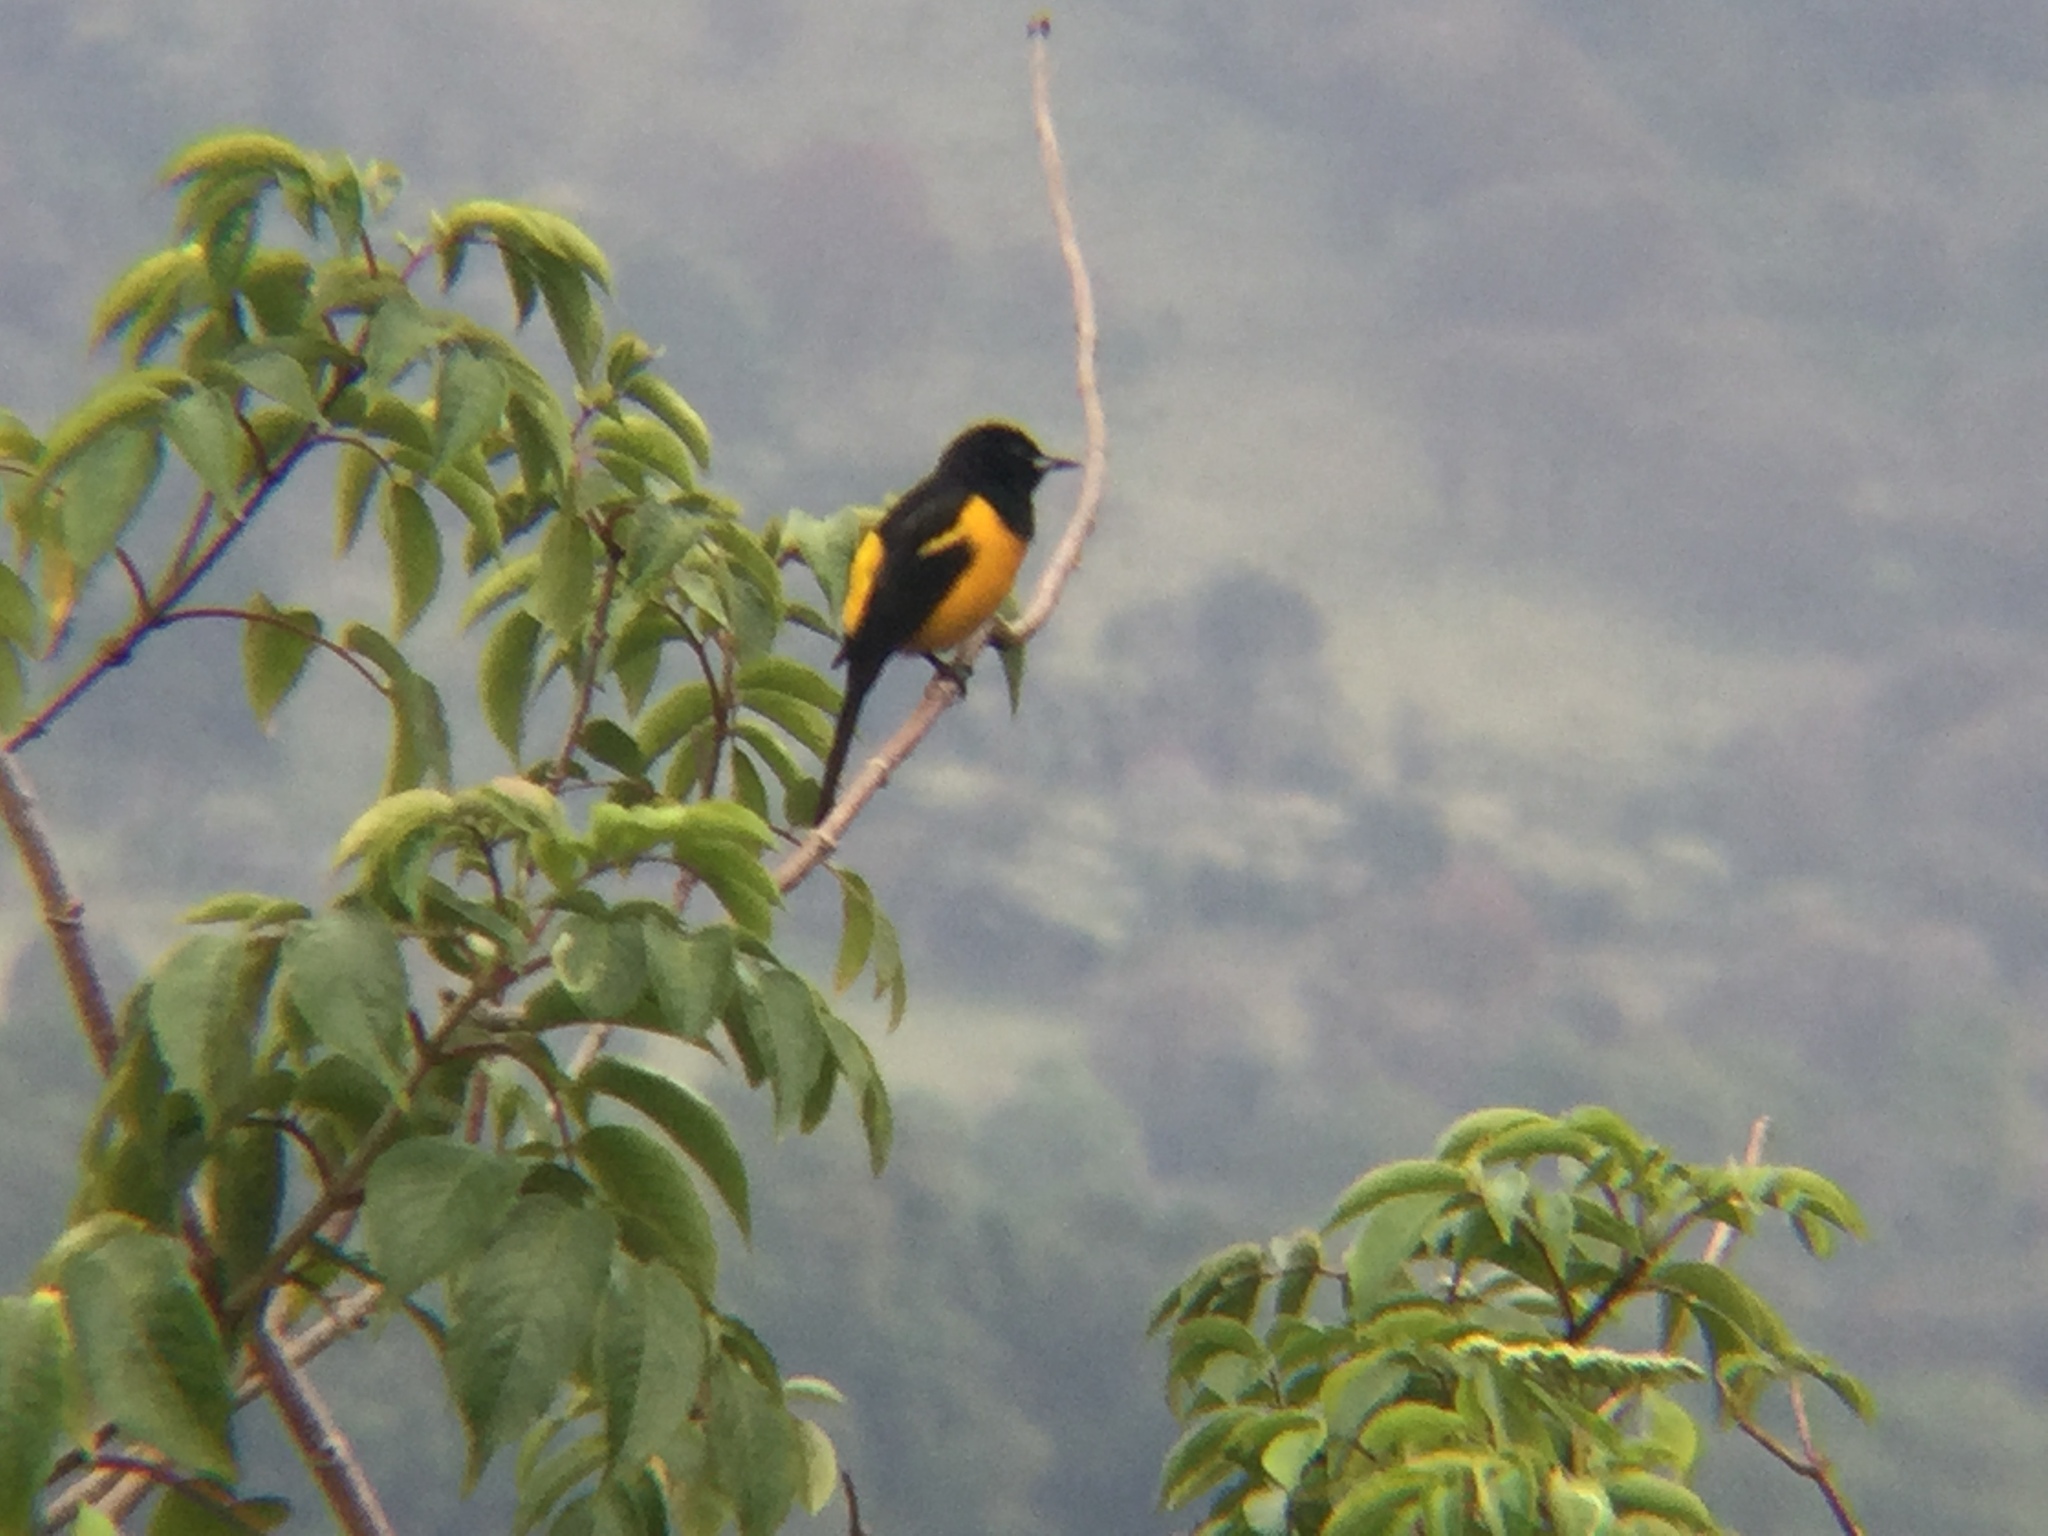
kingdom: Animalia
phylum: Chordata
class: Aves
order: Passeriformes
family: Icteridae
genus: Icterus
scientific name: Icterus wagleri
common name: Black-vented oriole
